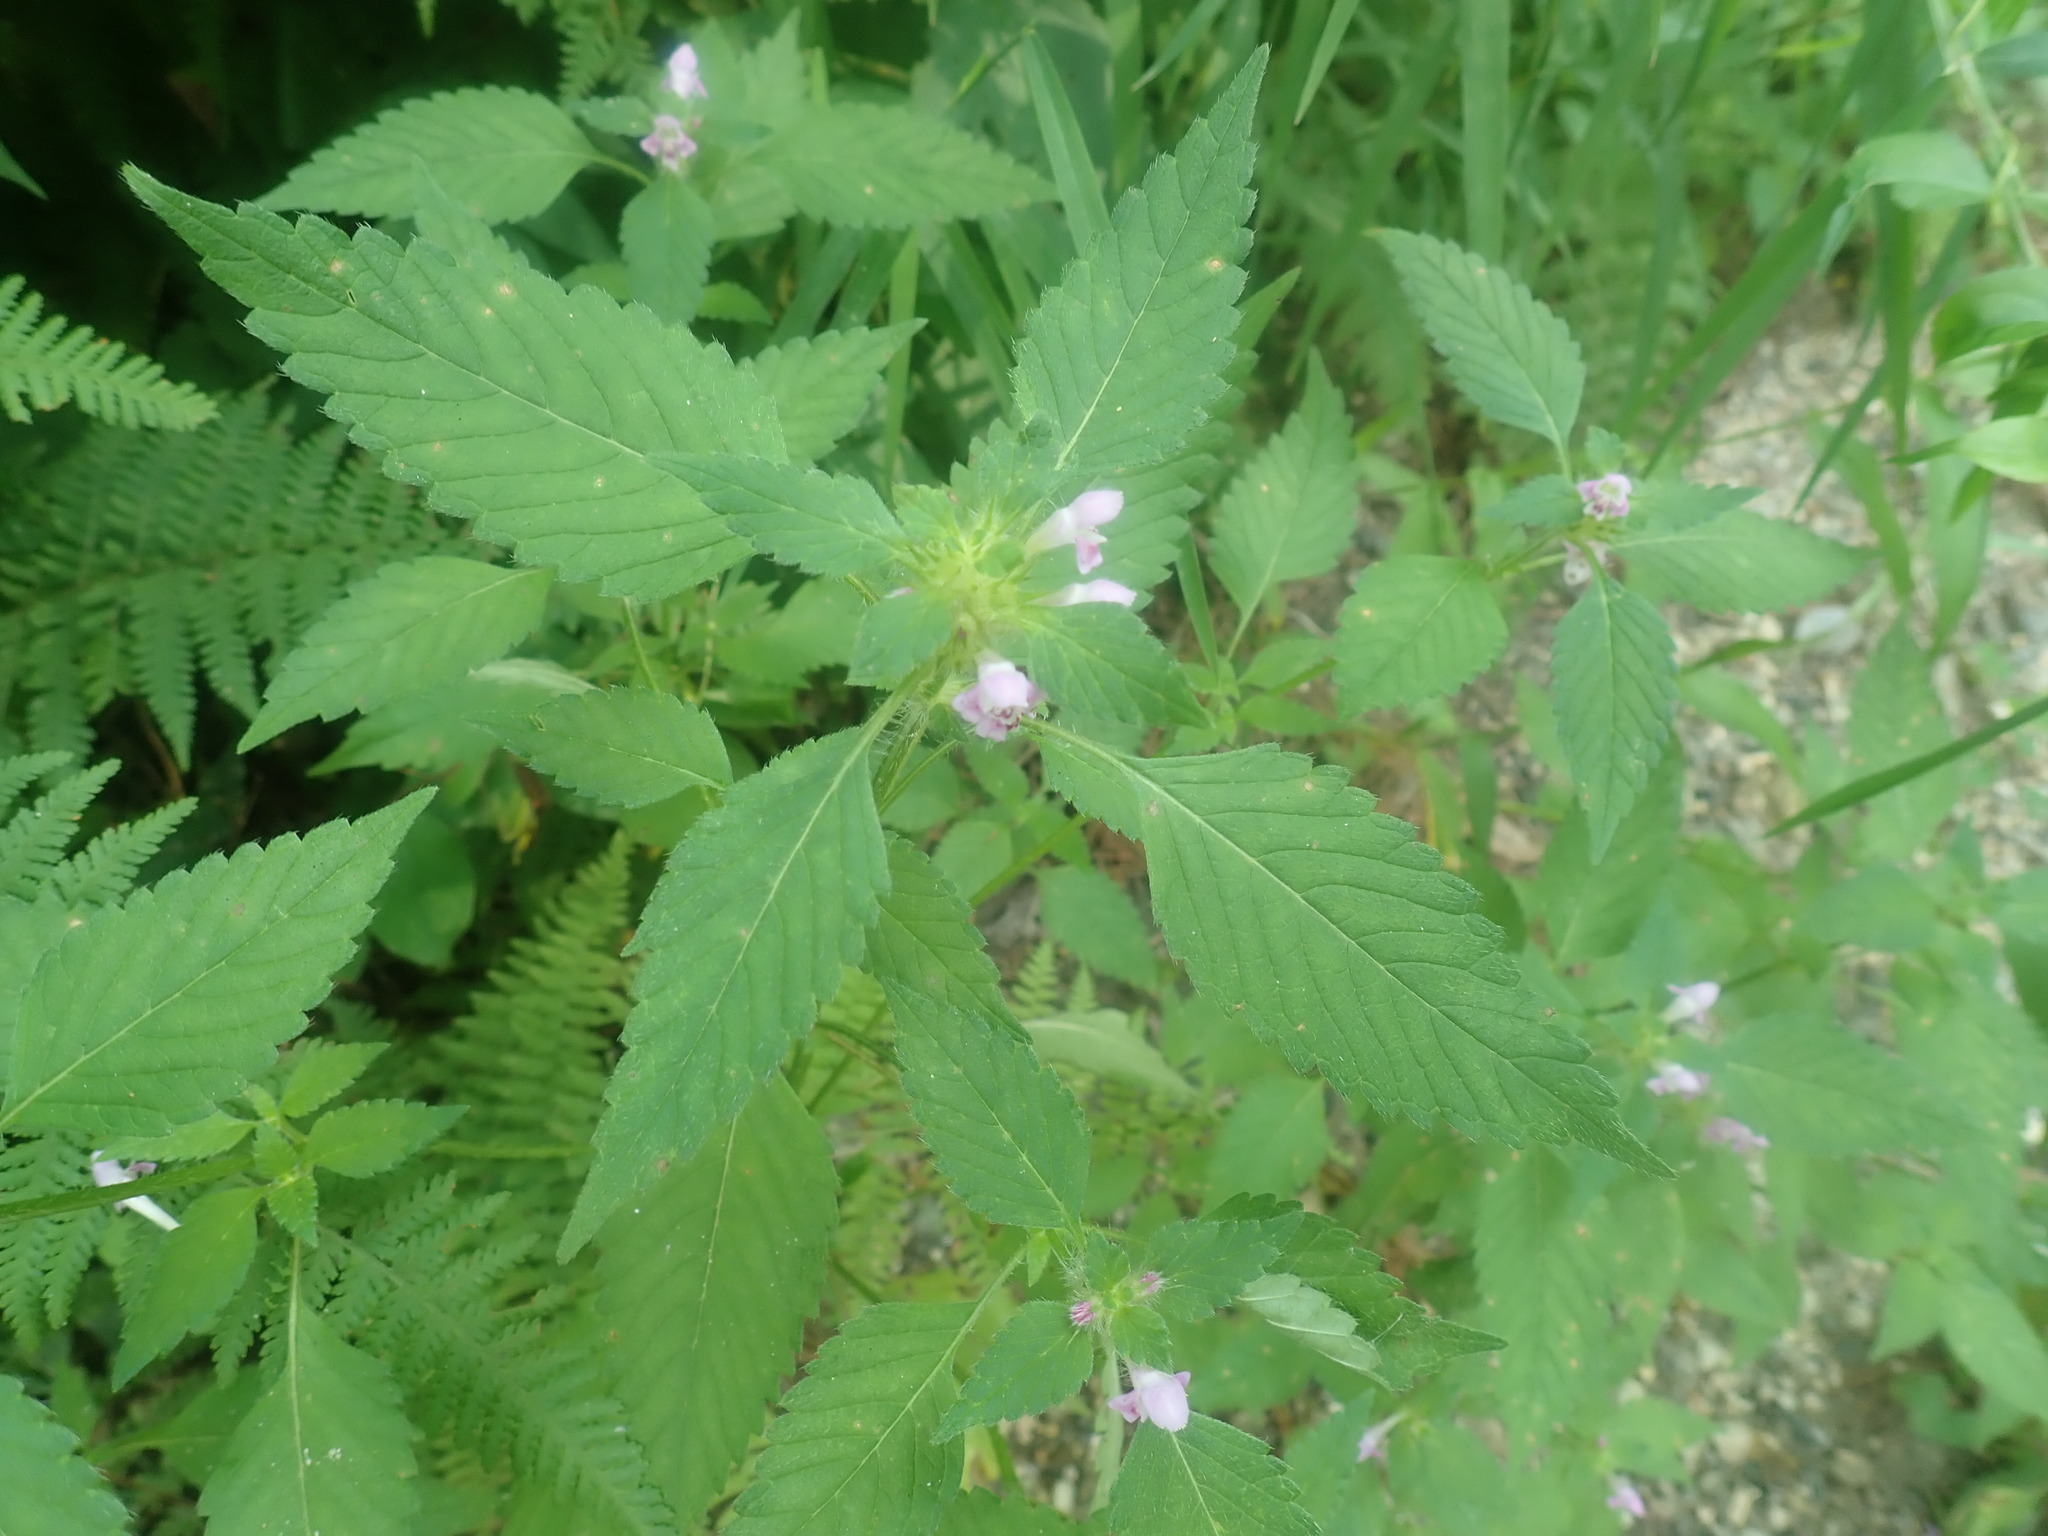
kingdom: Plantae
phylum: Tracheophyta
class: Magnoliopsida
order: Lamiales
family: Lamiaceae
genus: Galeopsis
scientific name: Galeopsis tetrahit
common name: Common hemp-nettle
